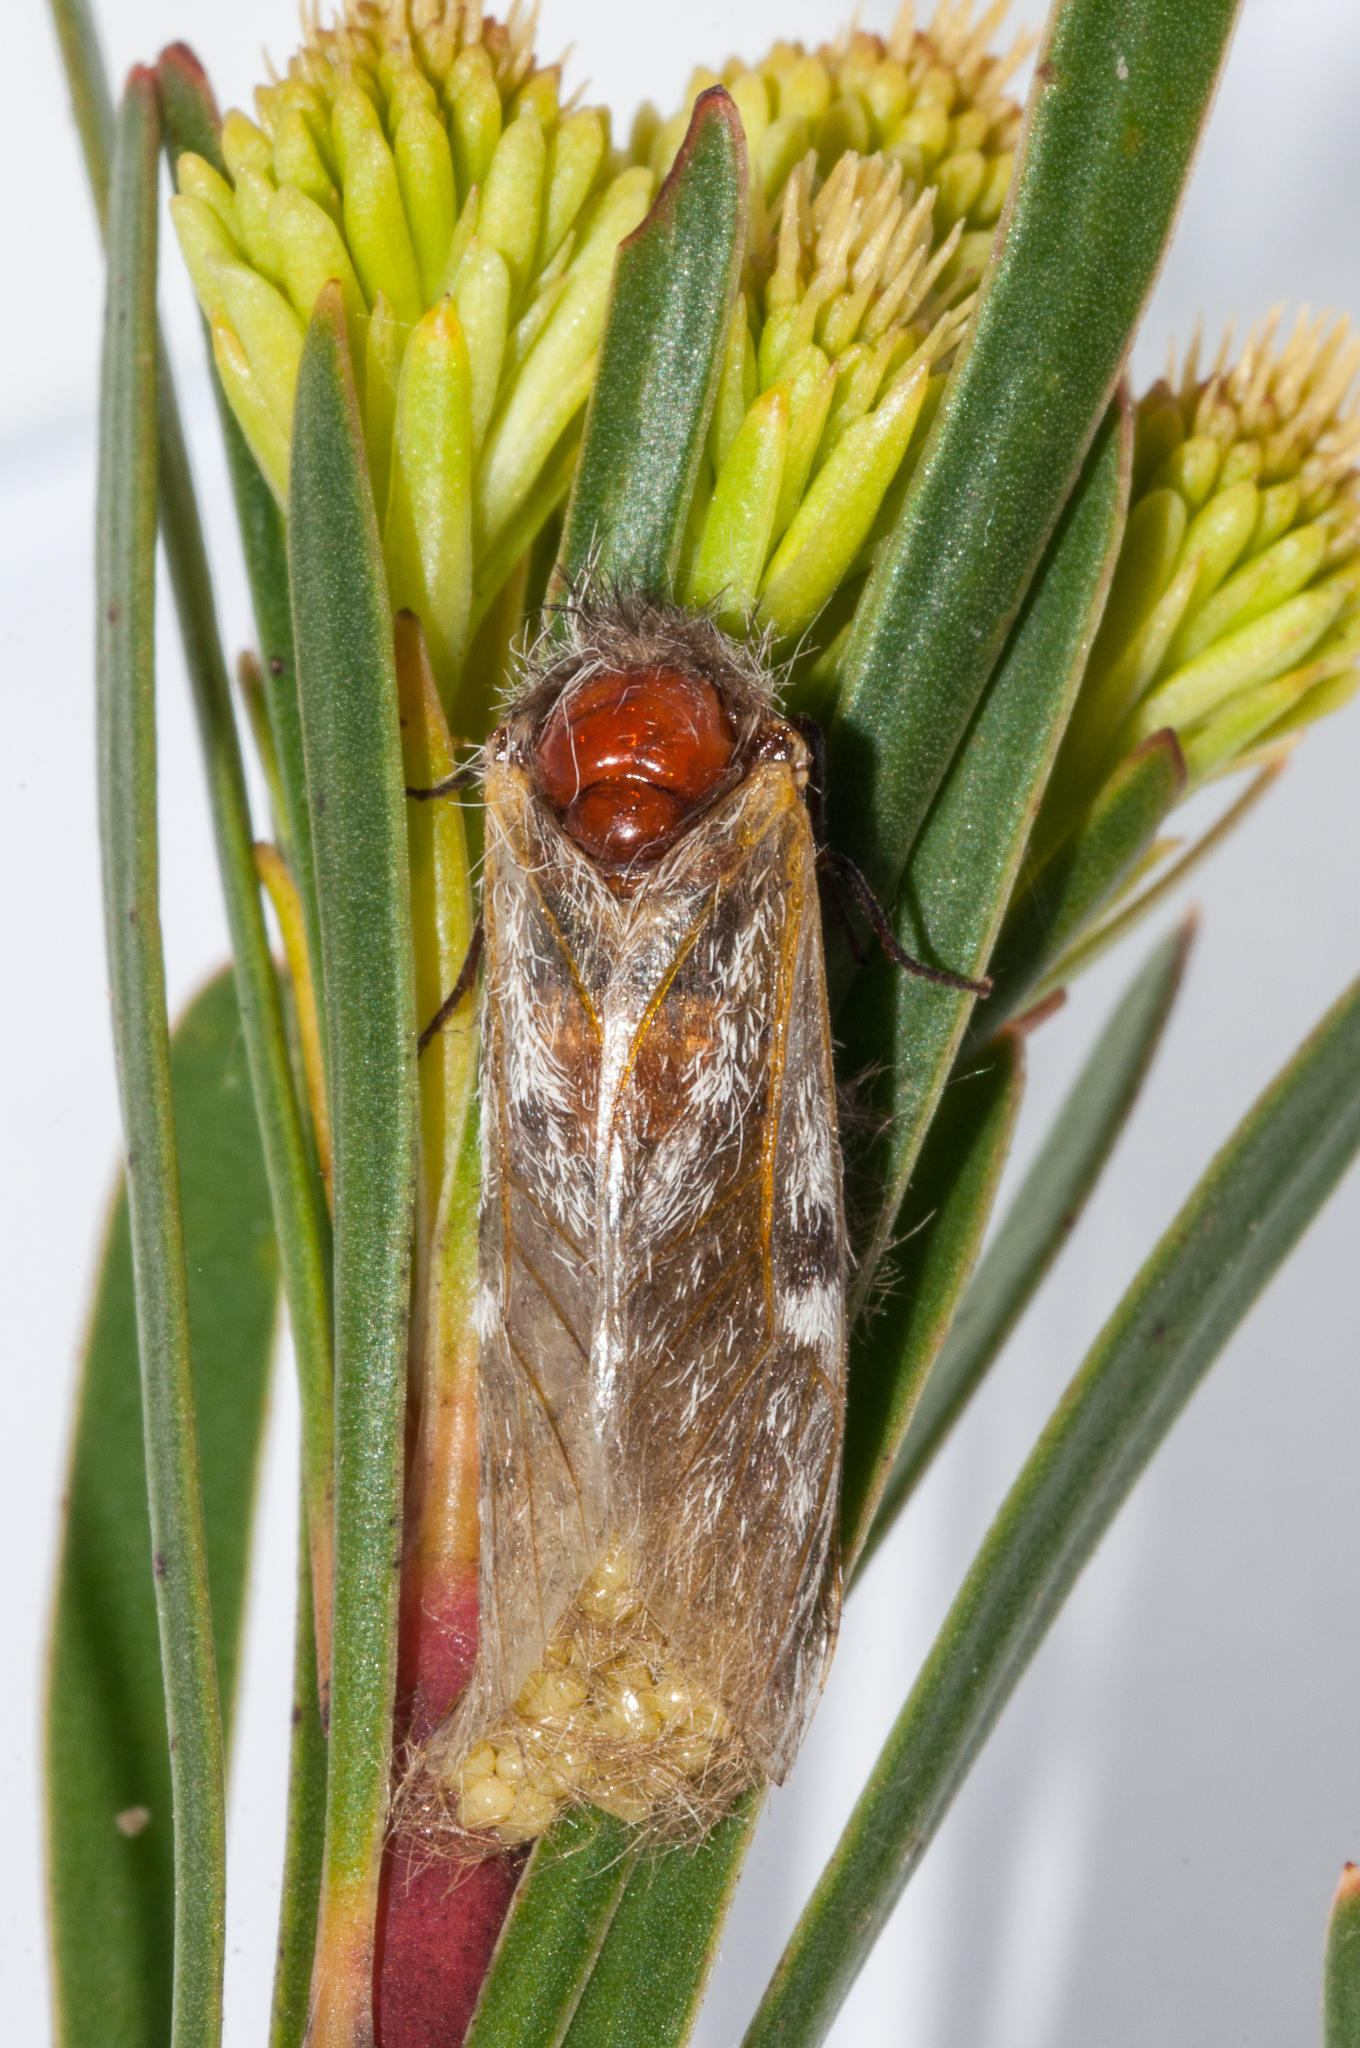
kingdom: Animalia
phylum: Arthropoda
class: Insecta
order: Lepidoptera
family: Somabrachyidae
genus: Psycharium
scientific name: Psycharium pellucens
